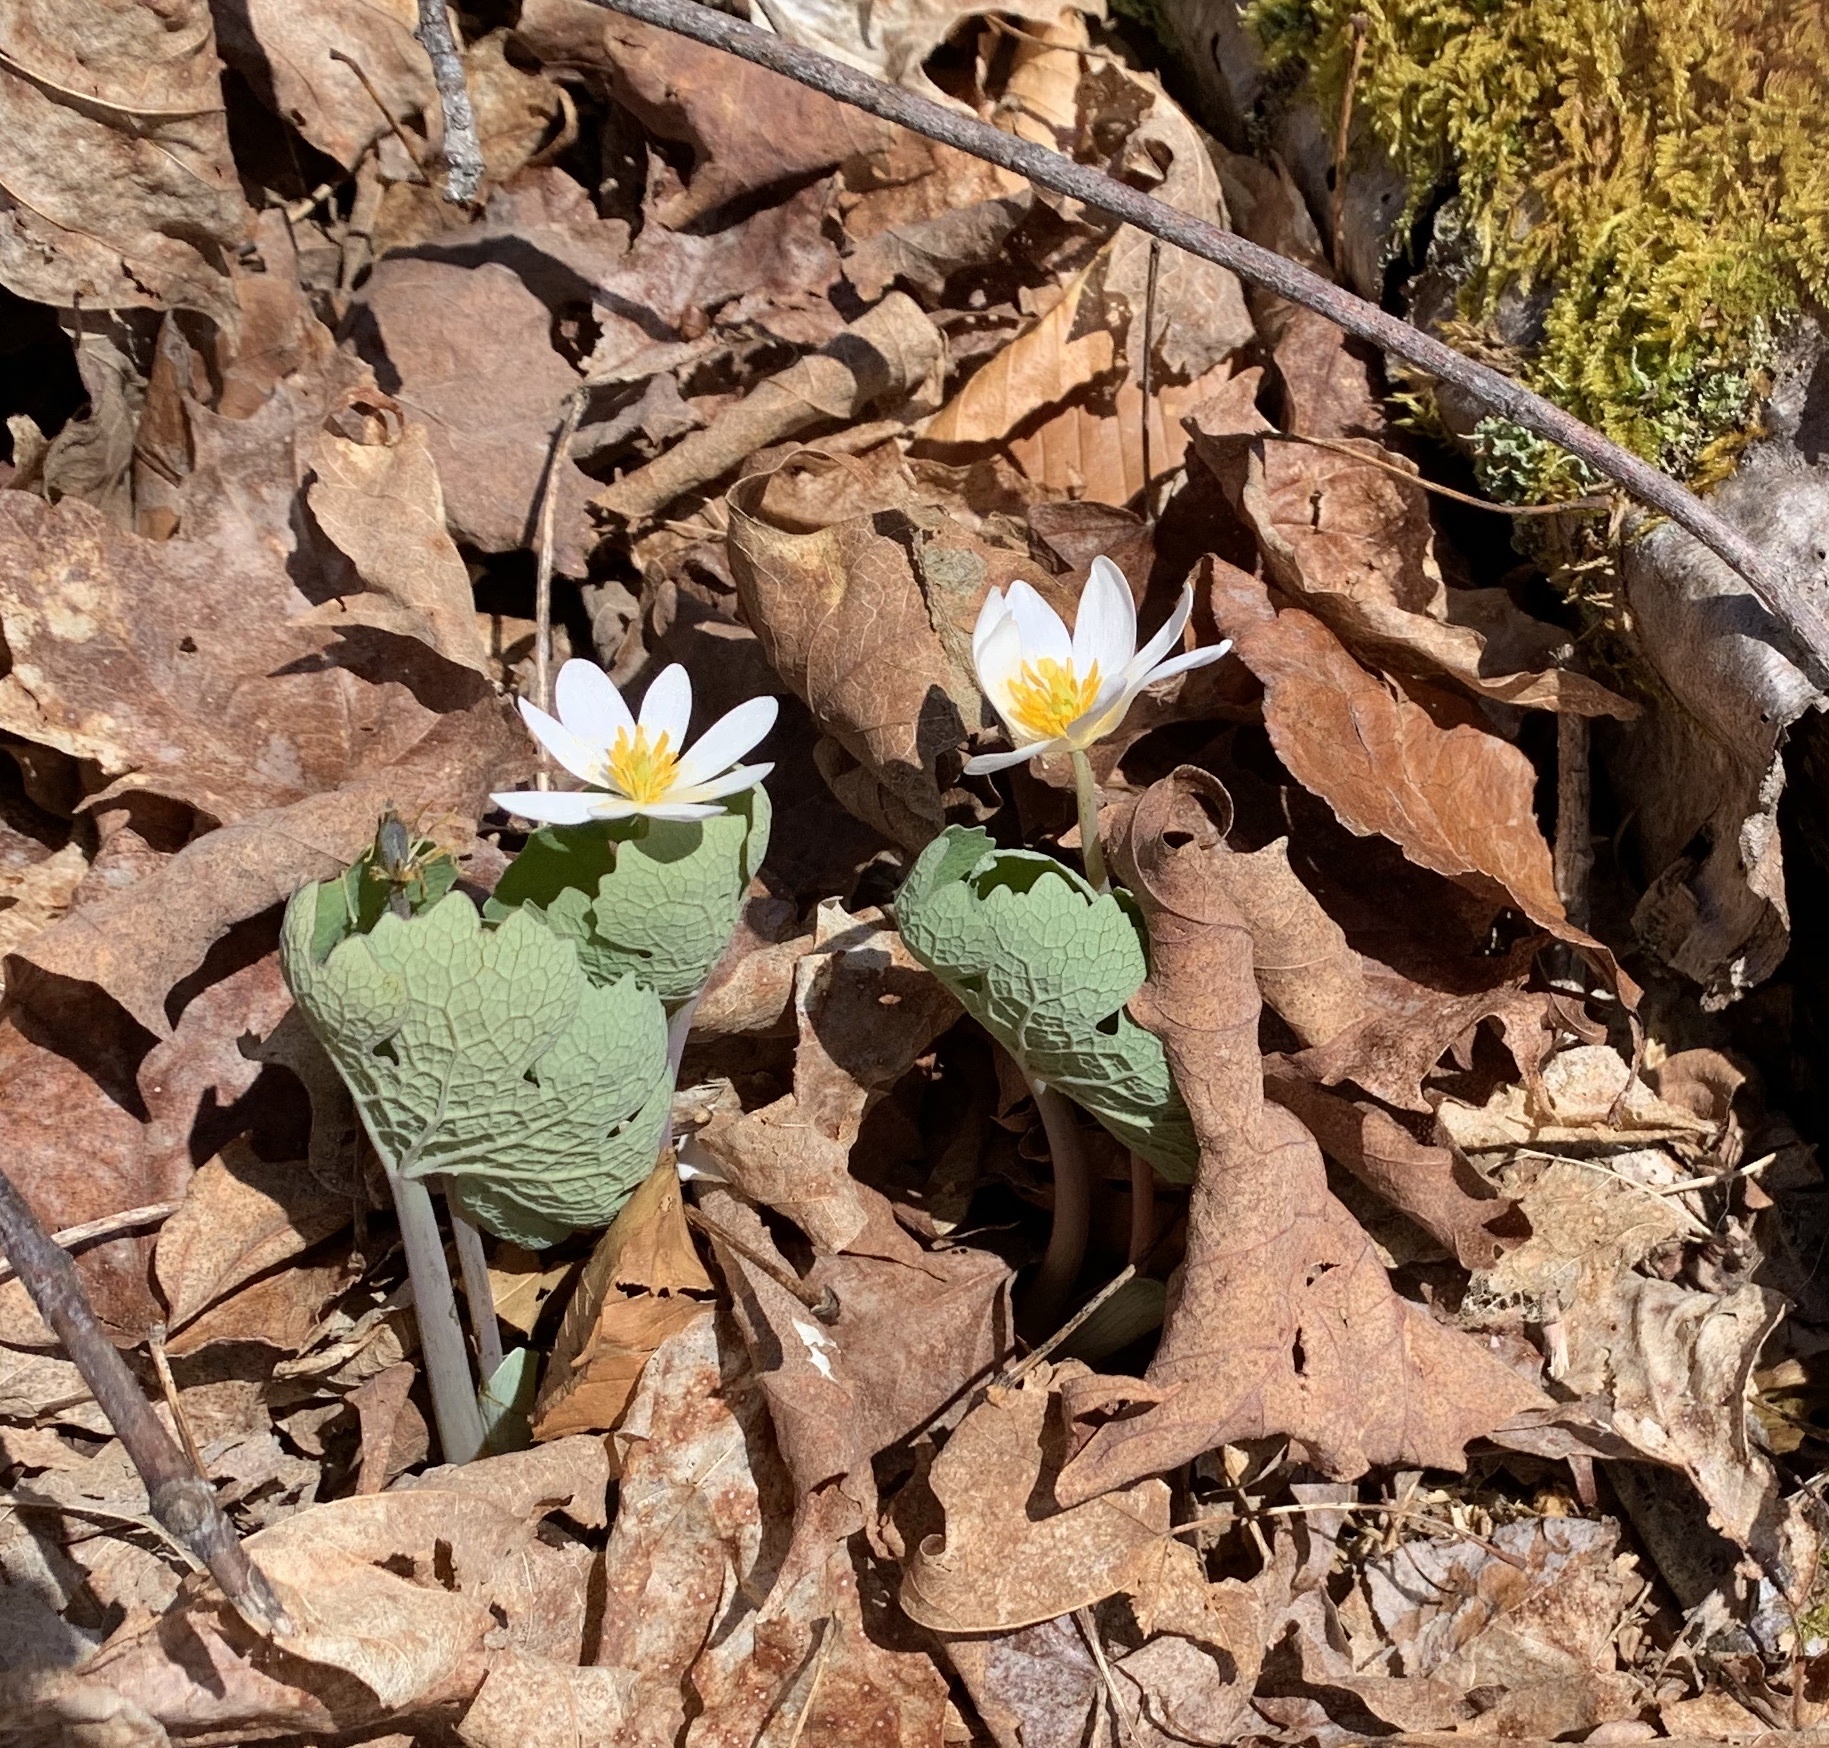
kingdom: Plantae
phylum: Tracheophyta
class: Magnoliopsida
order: Ranunculales
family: Papaveraceae
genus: Sanguinaria
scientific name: Sanguinaria canadensis
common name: Bloodroot
